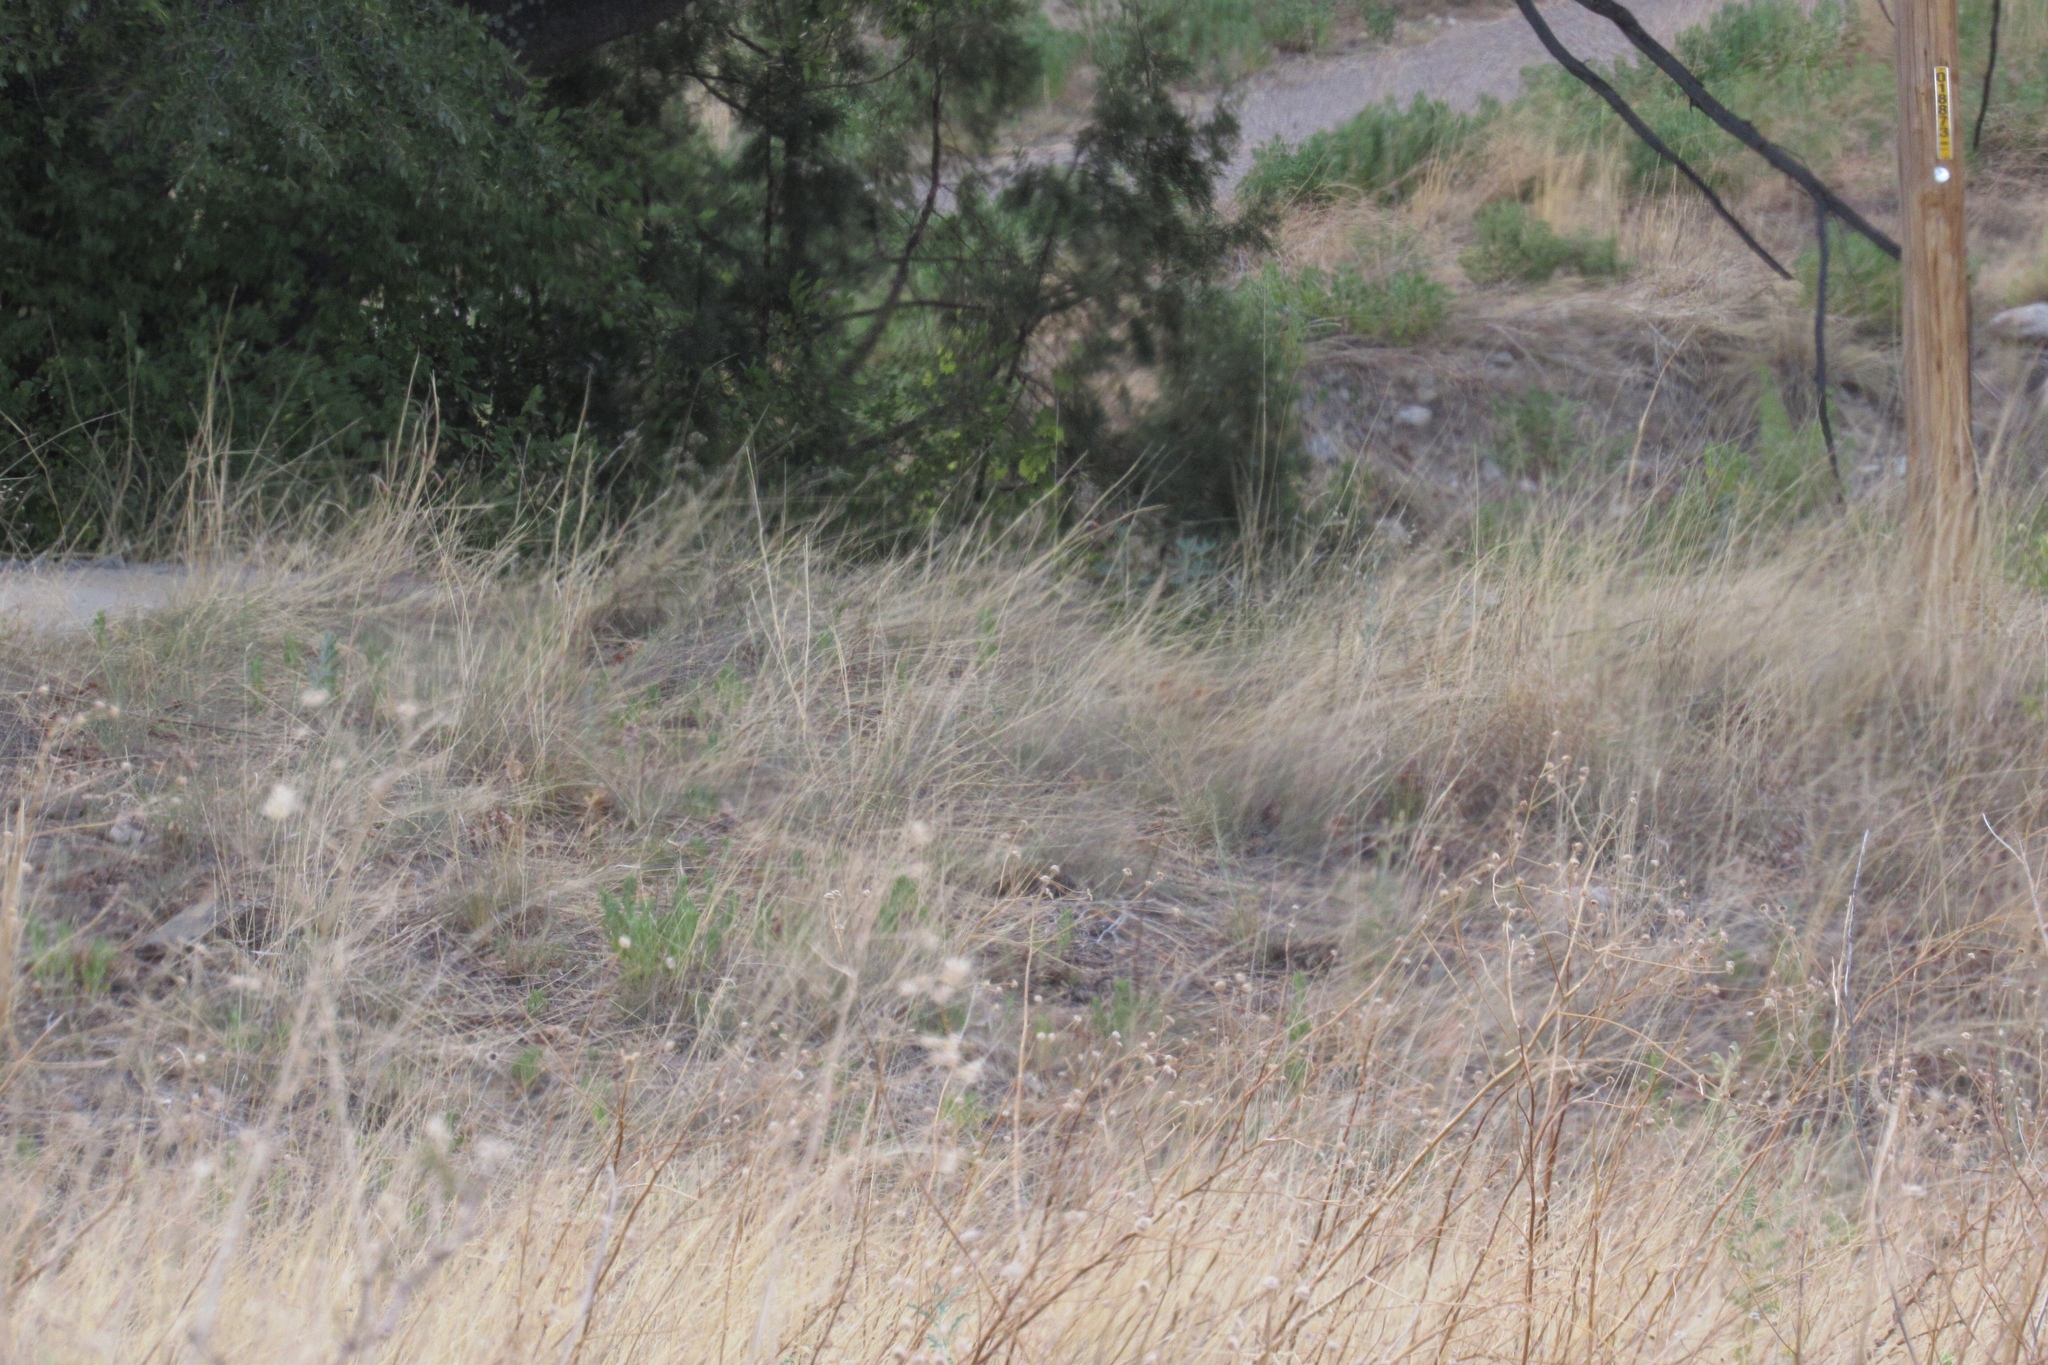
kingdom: Animalia
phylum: Chordata
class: Mammalia
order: Artiodactyla
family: Cervidae
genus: Odocoileus
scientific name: Odocoileus virginianus
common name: White-tailed deer
